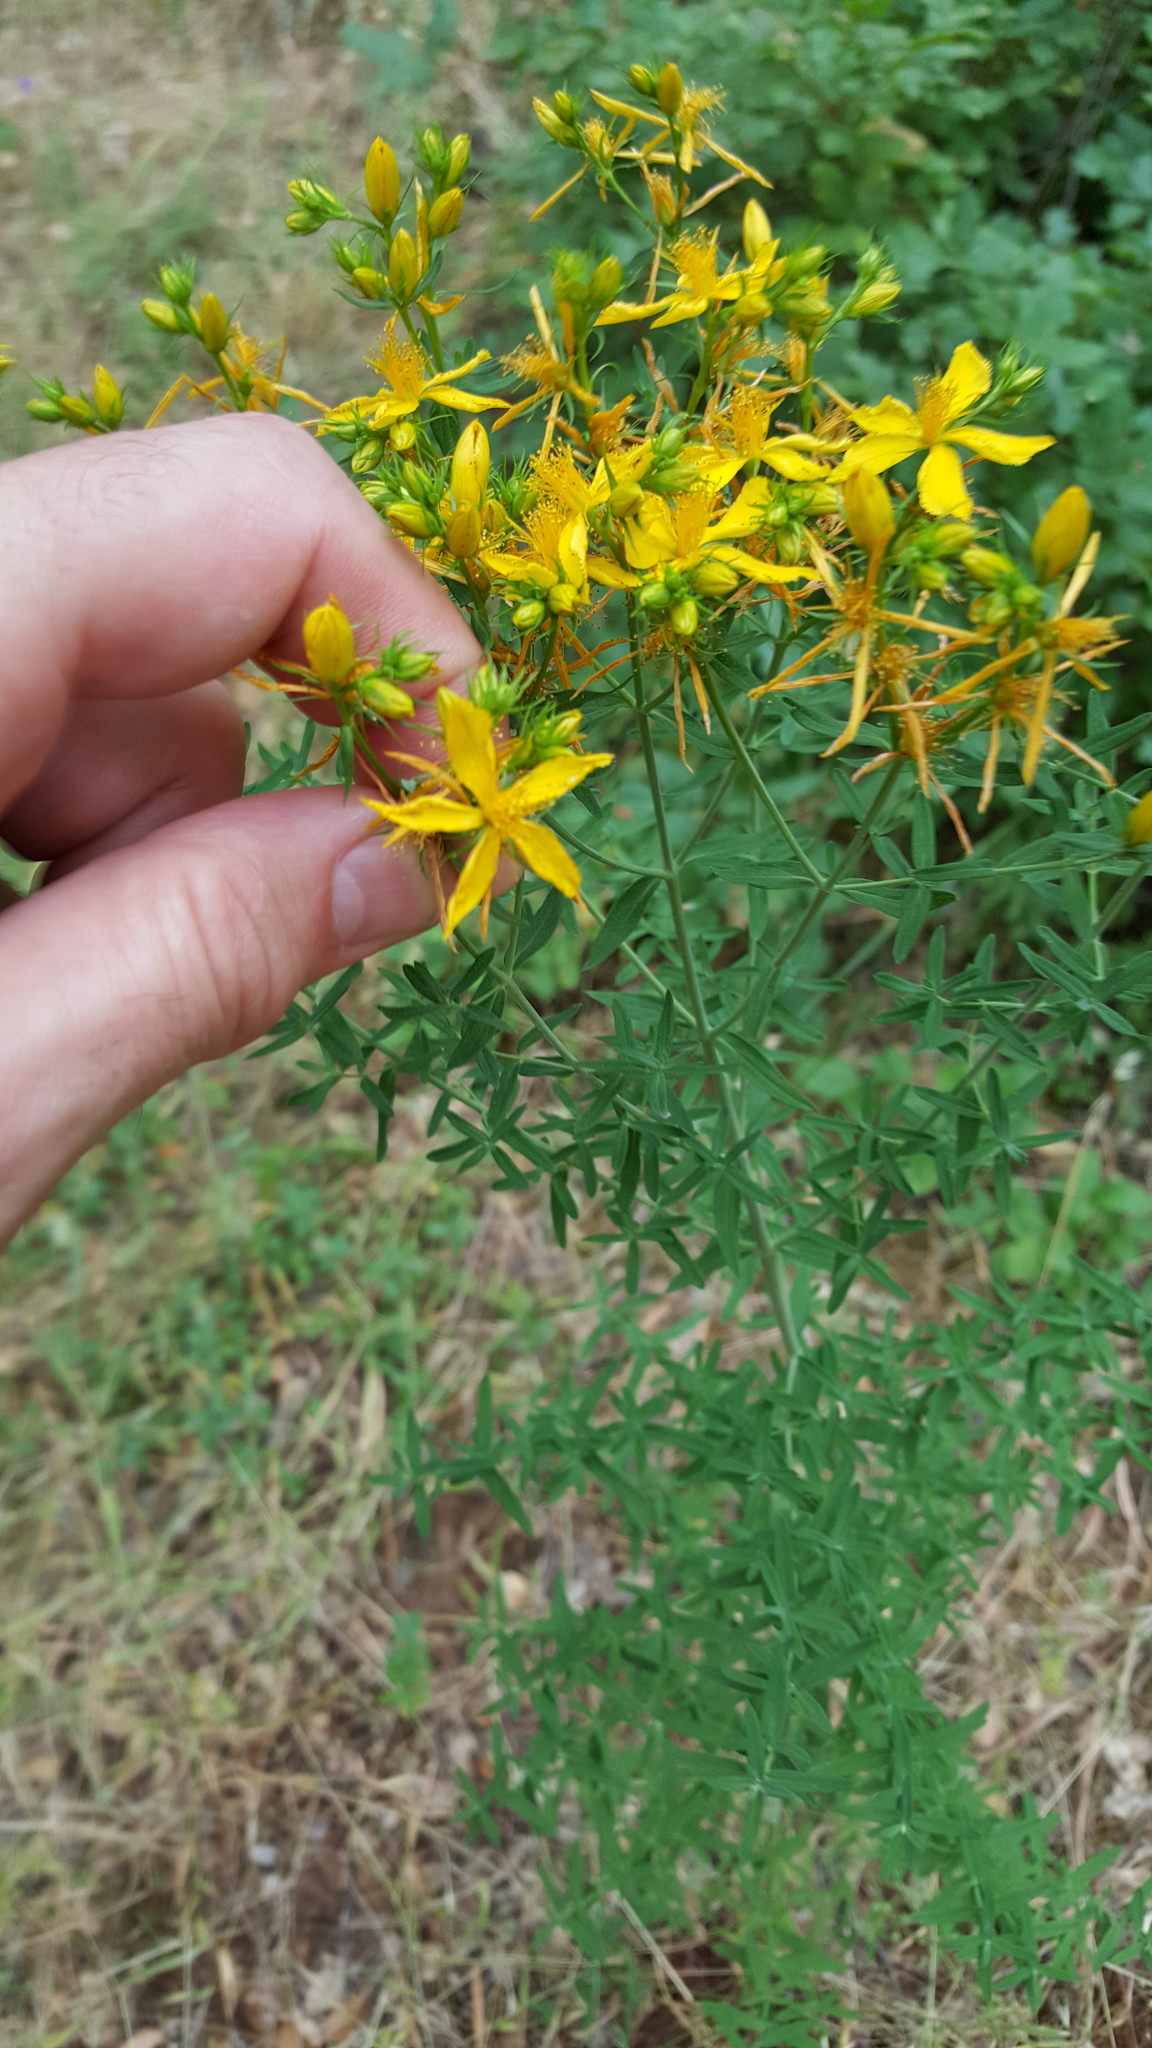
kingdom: Plantae
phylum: Tracheophyta
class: Magnoliopsida
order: Malpighiales
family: Hypericaceae
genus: Hypericum
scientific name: Hypericum perforatum
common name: Common st. johnswort
